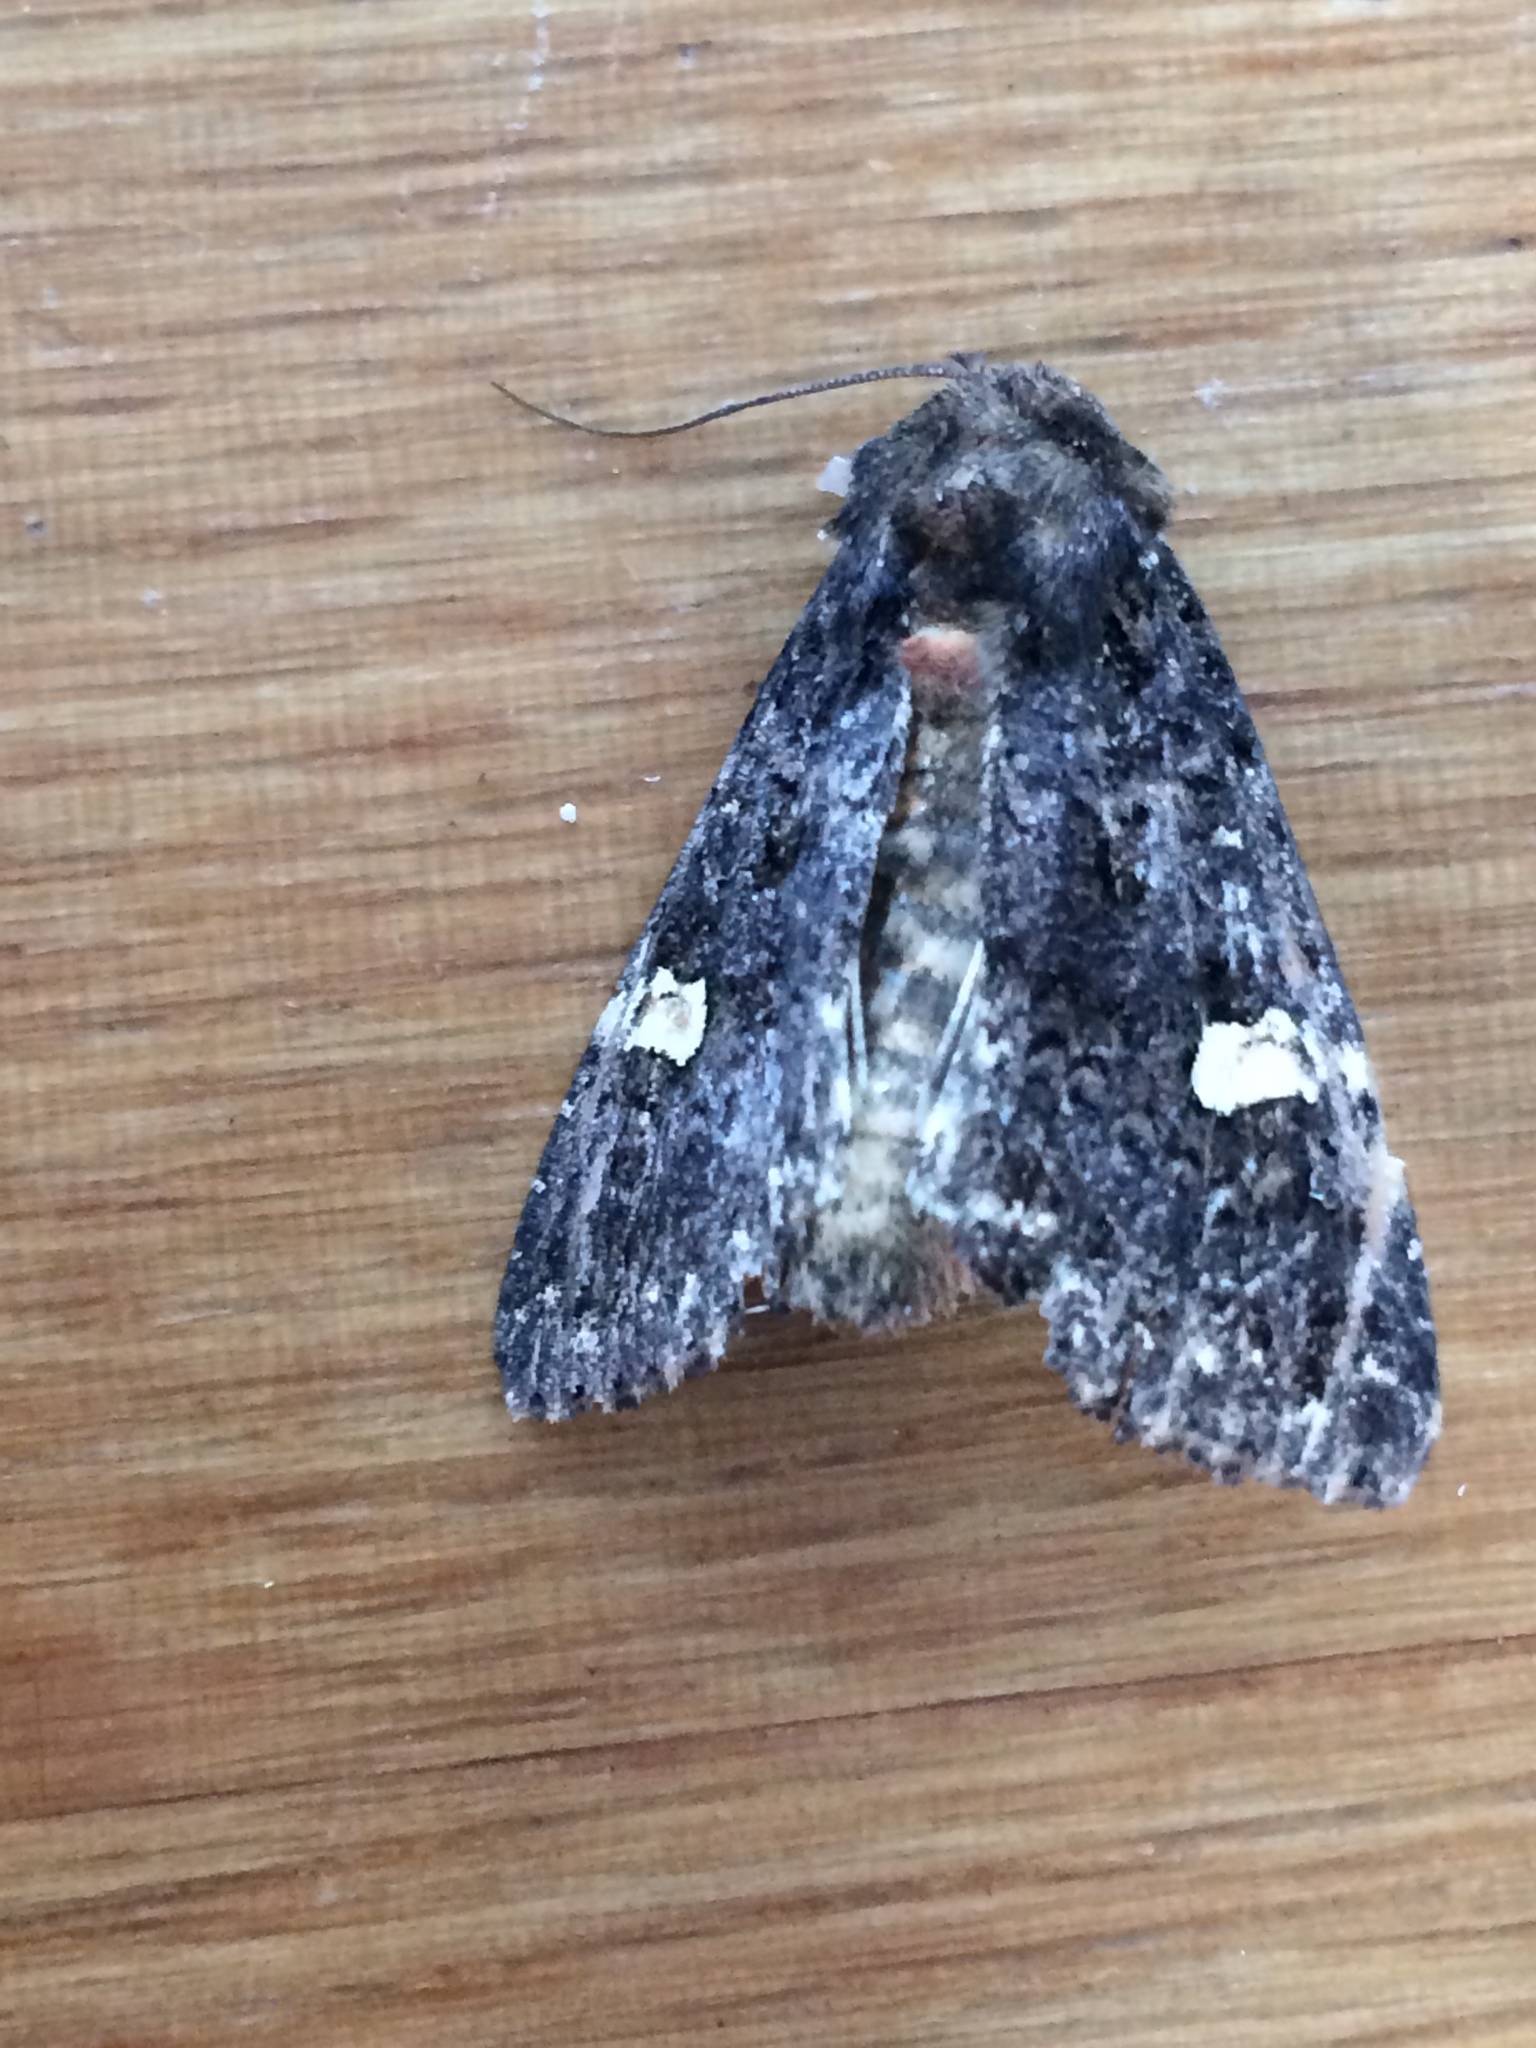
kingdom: Animalia
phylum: Arthropoda
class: Insecta
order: Lepidoptera
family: Noctuidae
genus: Melanchra
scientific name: Melanchra persicariae
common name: Dot moth
